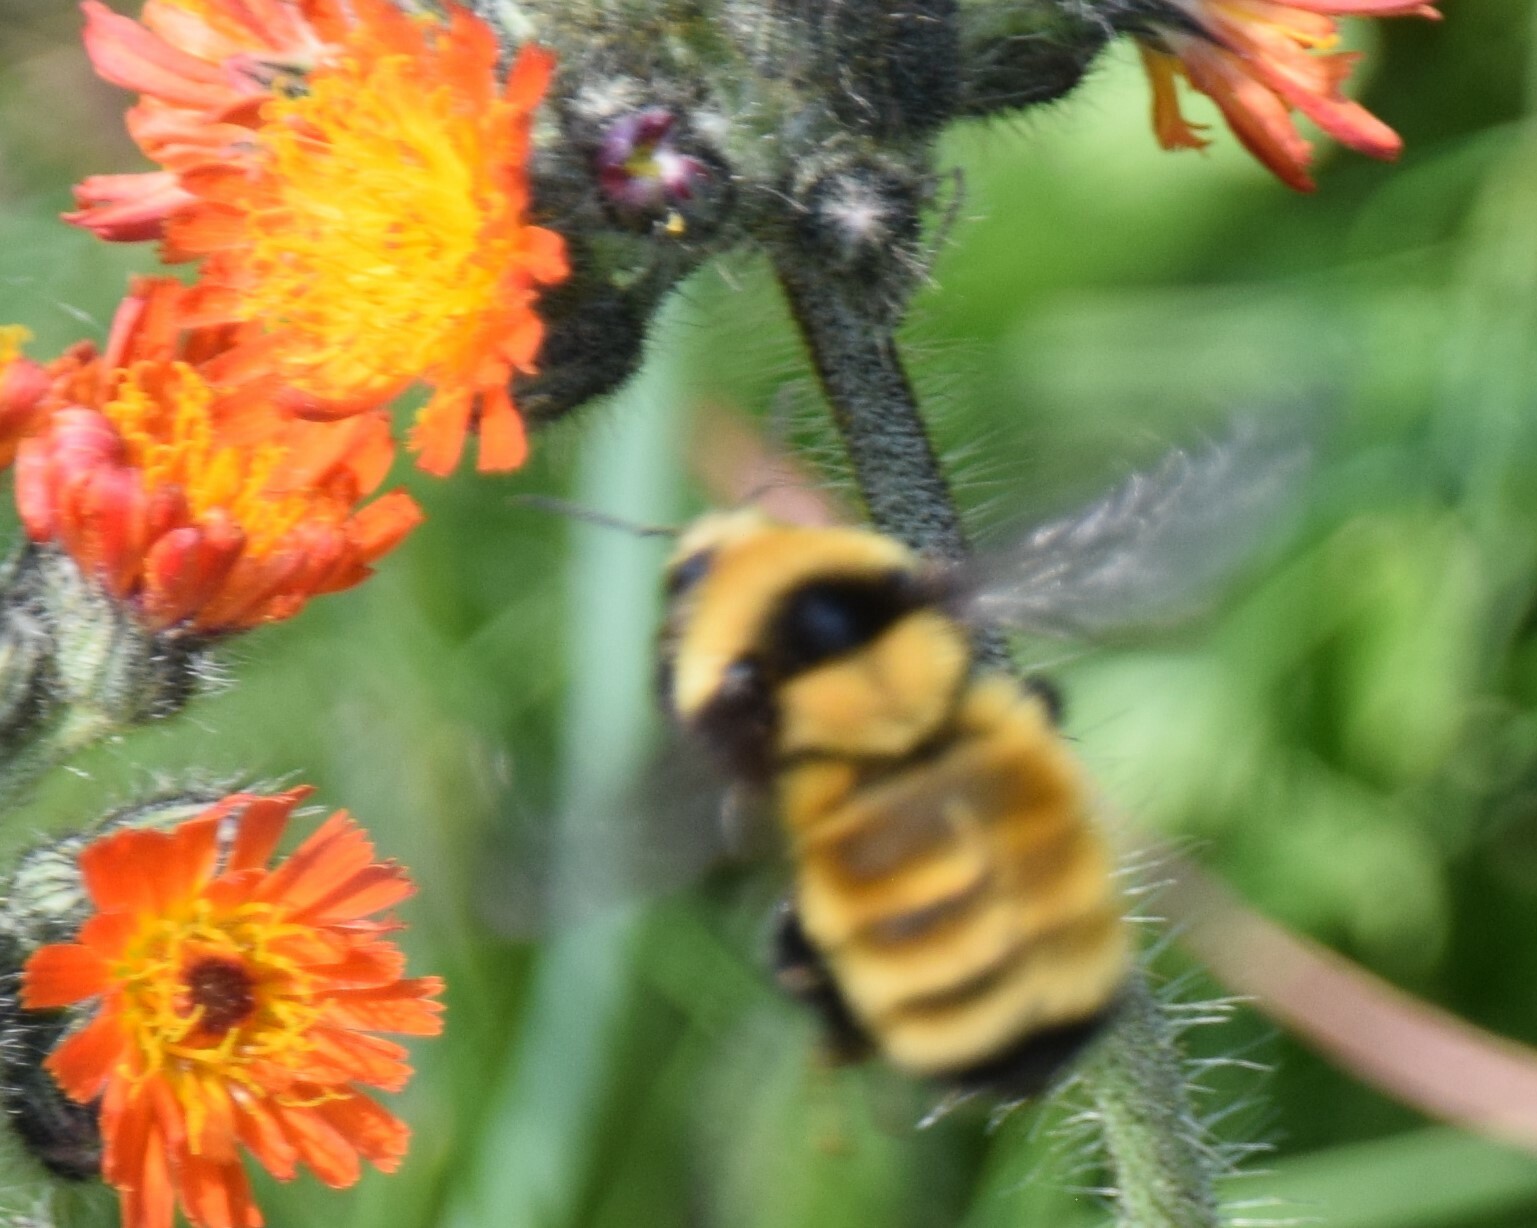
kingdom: Animalia
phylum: Arthropoda
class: Insecta
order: Hymenoptera
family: Apidae
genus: Bombus
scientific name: Bombus borealis
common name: Northern amber bumble bee
